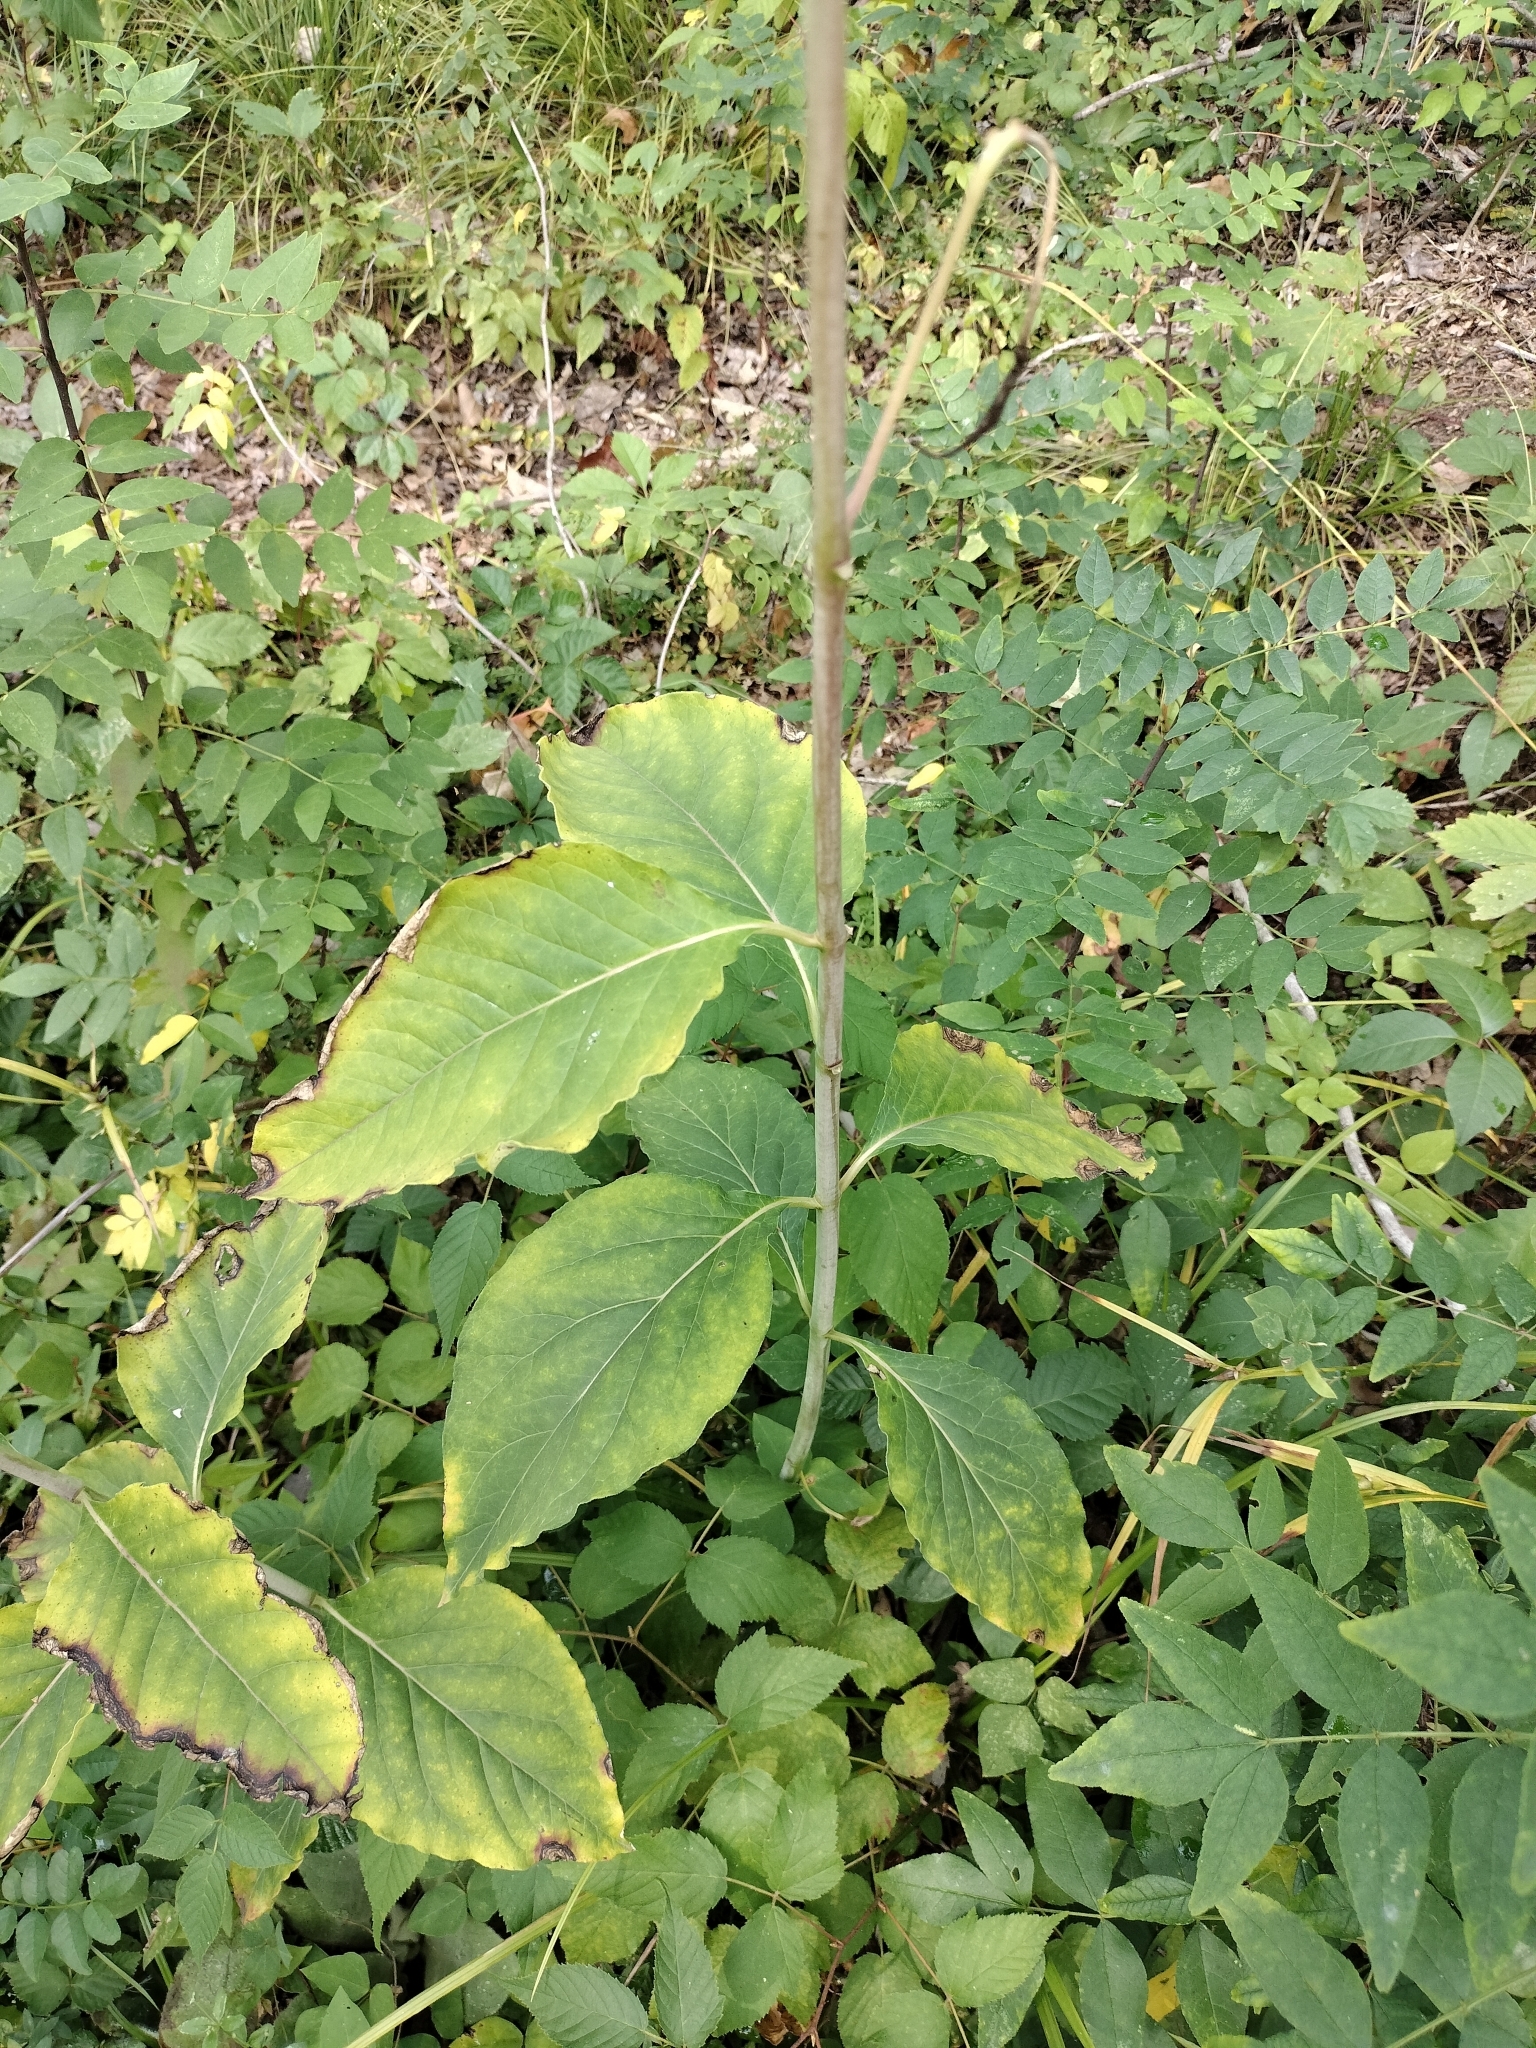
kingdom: Plantae
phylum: Tracheophyta
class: Magnoliopsida
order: Gentianales
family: Apocynaceae
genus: Asclepias
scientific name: Asclepias exaltata
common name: Poke milkweed
